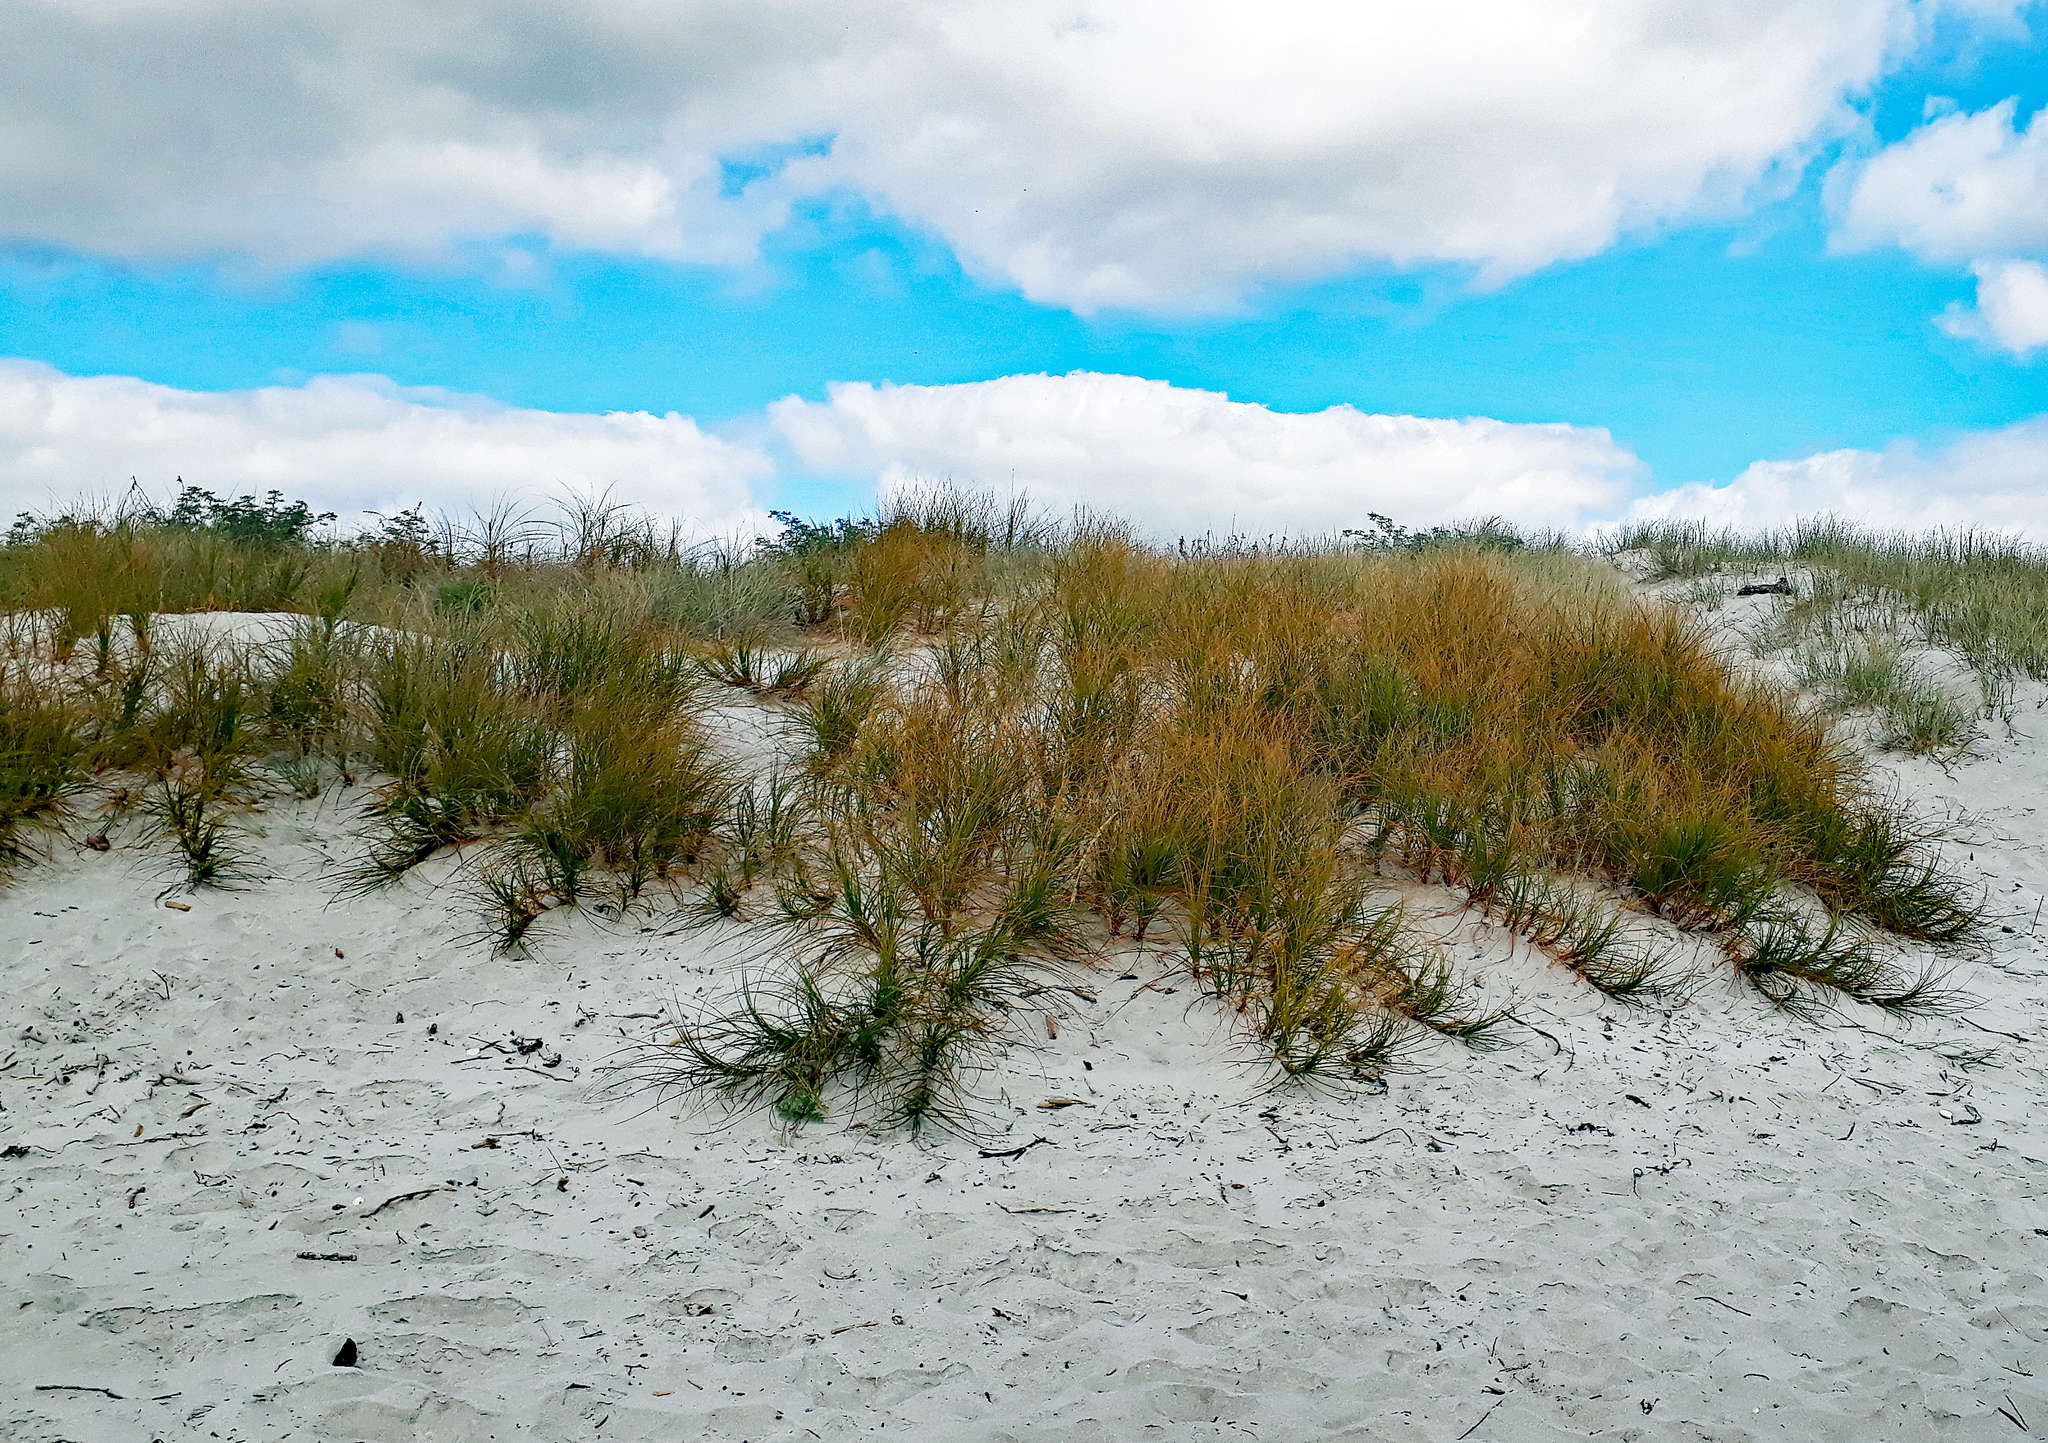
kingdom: Plantae
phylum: Tracheophyta
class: Liliopsida
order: Poales
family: Cyperaceae
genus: Ficinia
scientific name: Ficinia spiralis
